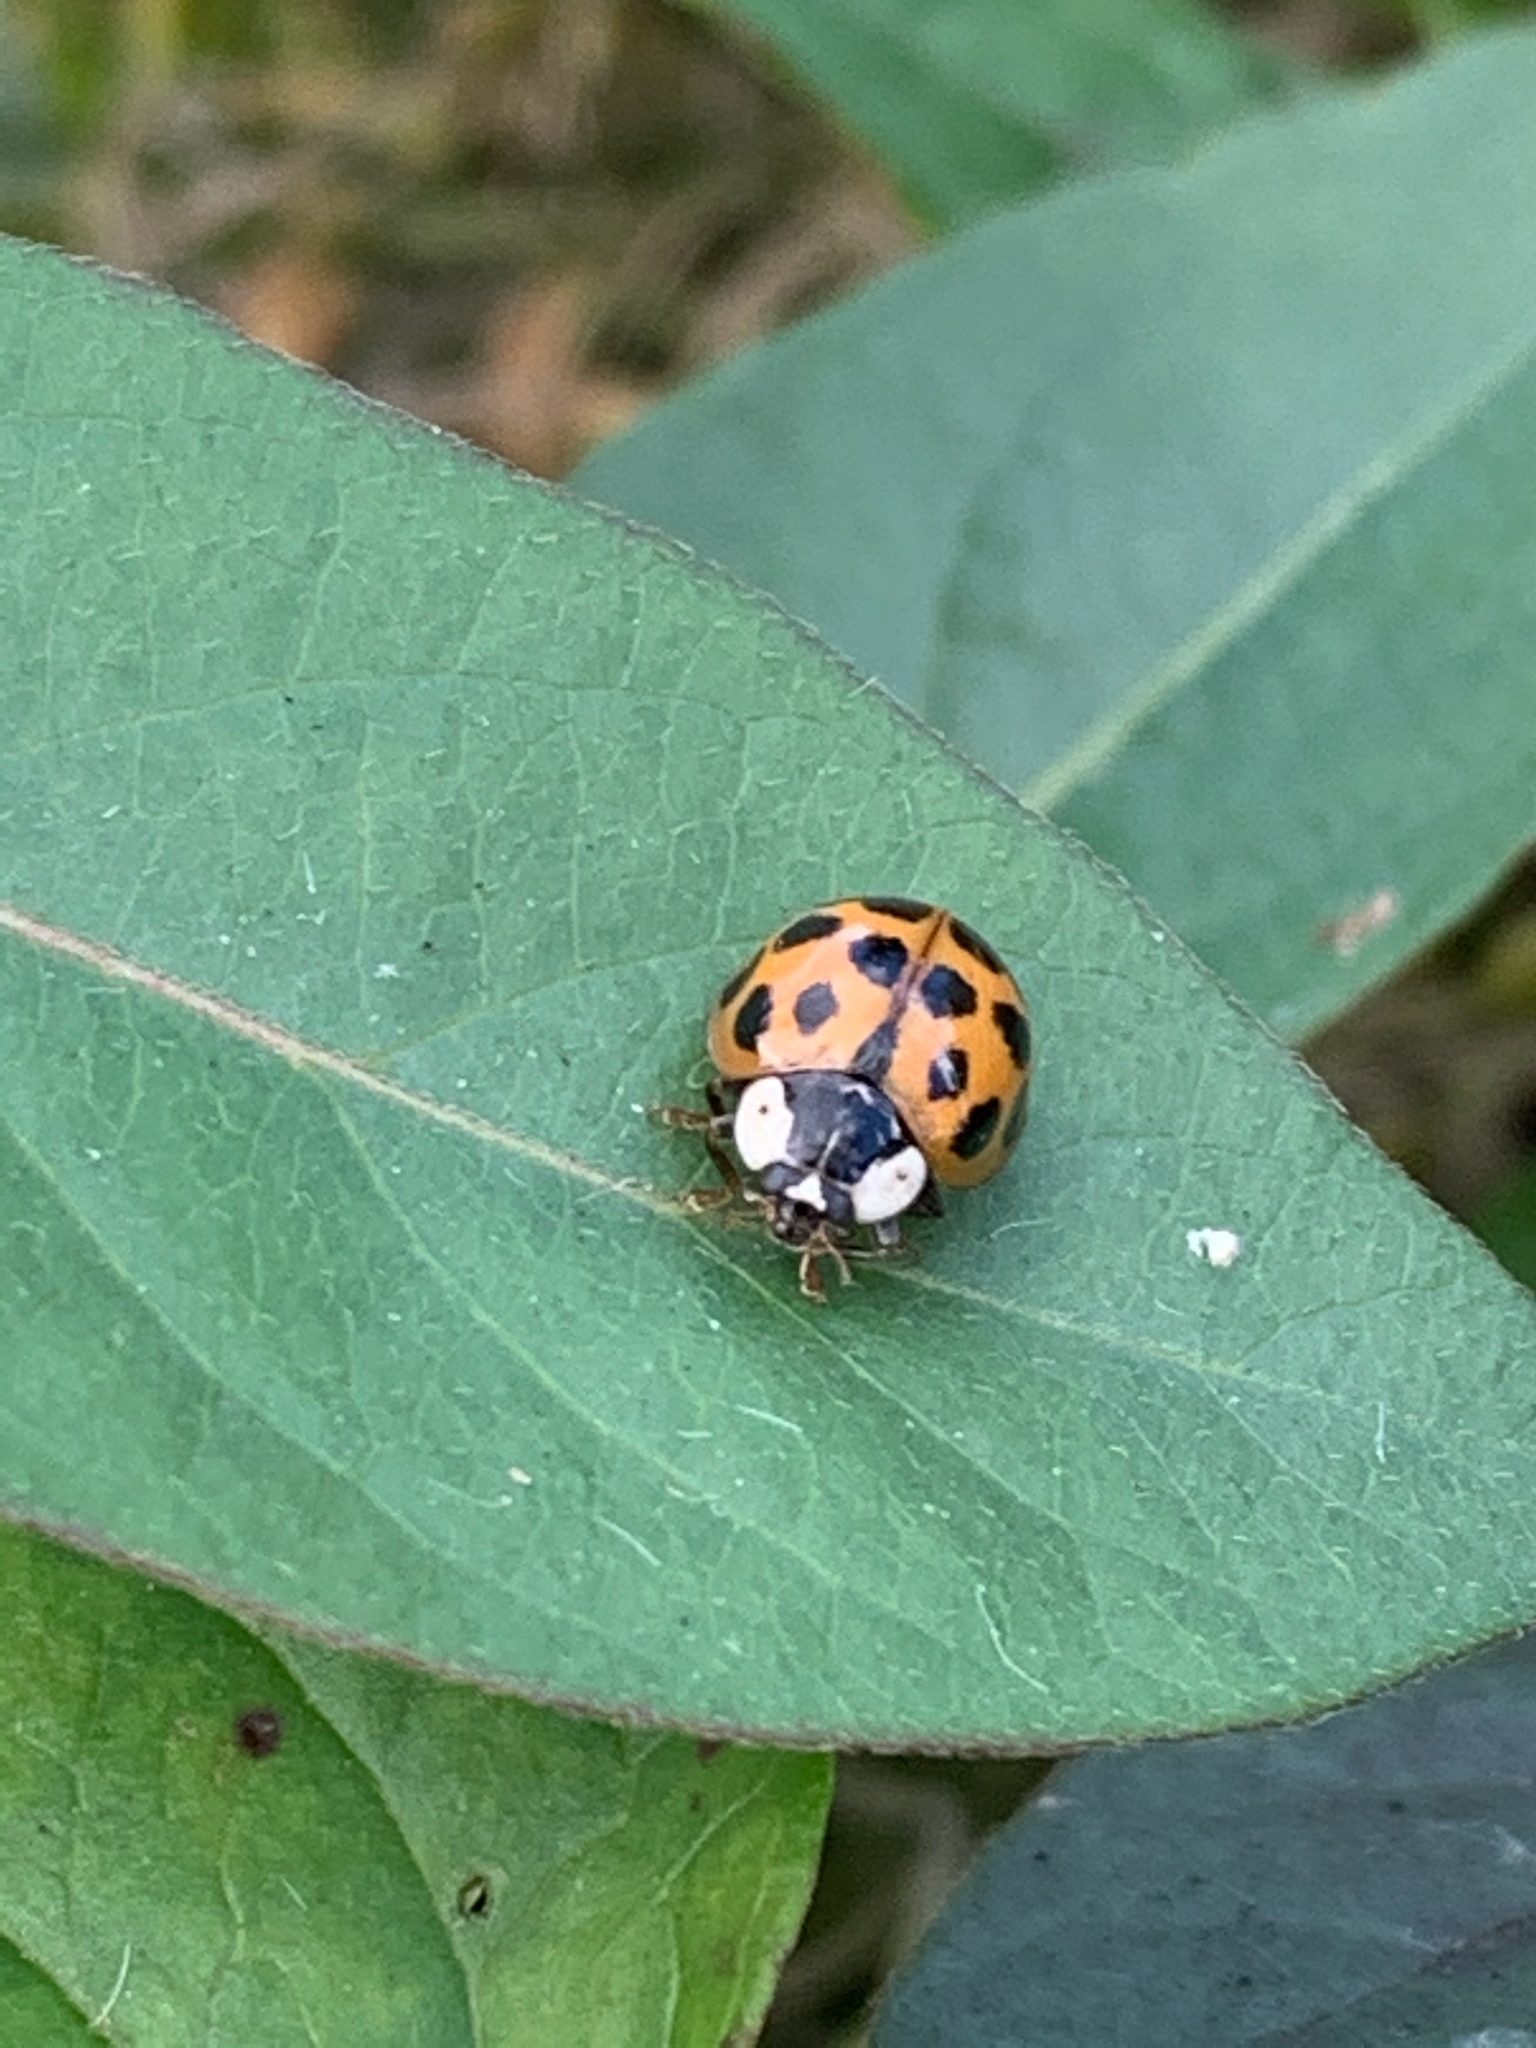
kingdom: Animalia
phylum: Arthropoda
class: Insecta
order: Coleoptera
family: Coccinellidae
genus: Harmonia
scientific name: Harmonia axyridis
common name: Harlequin ladybird
